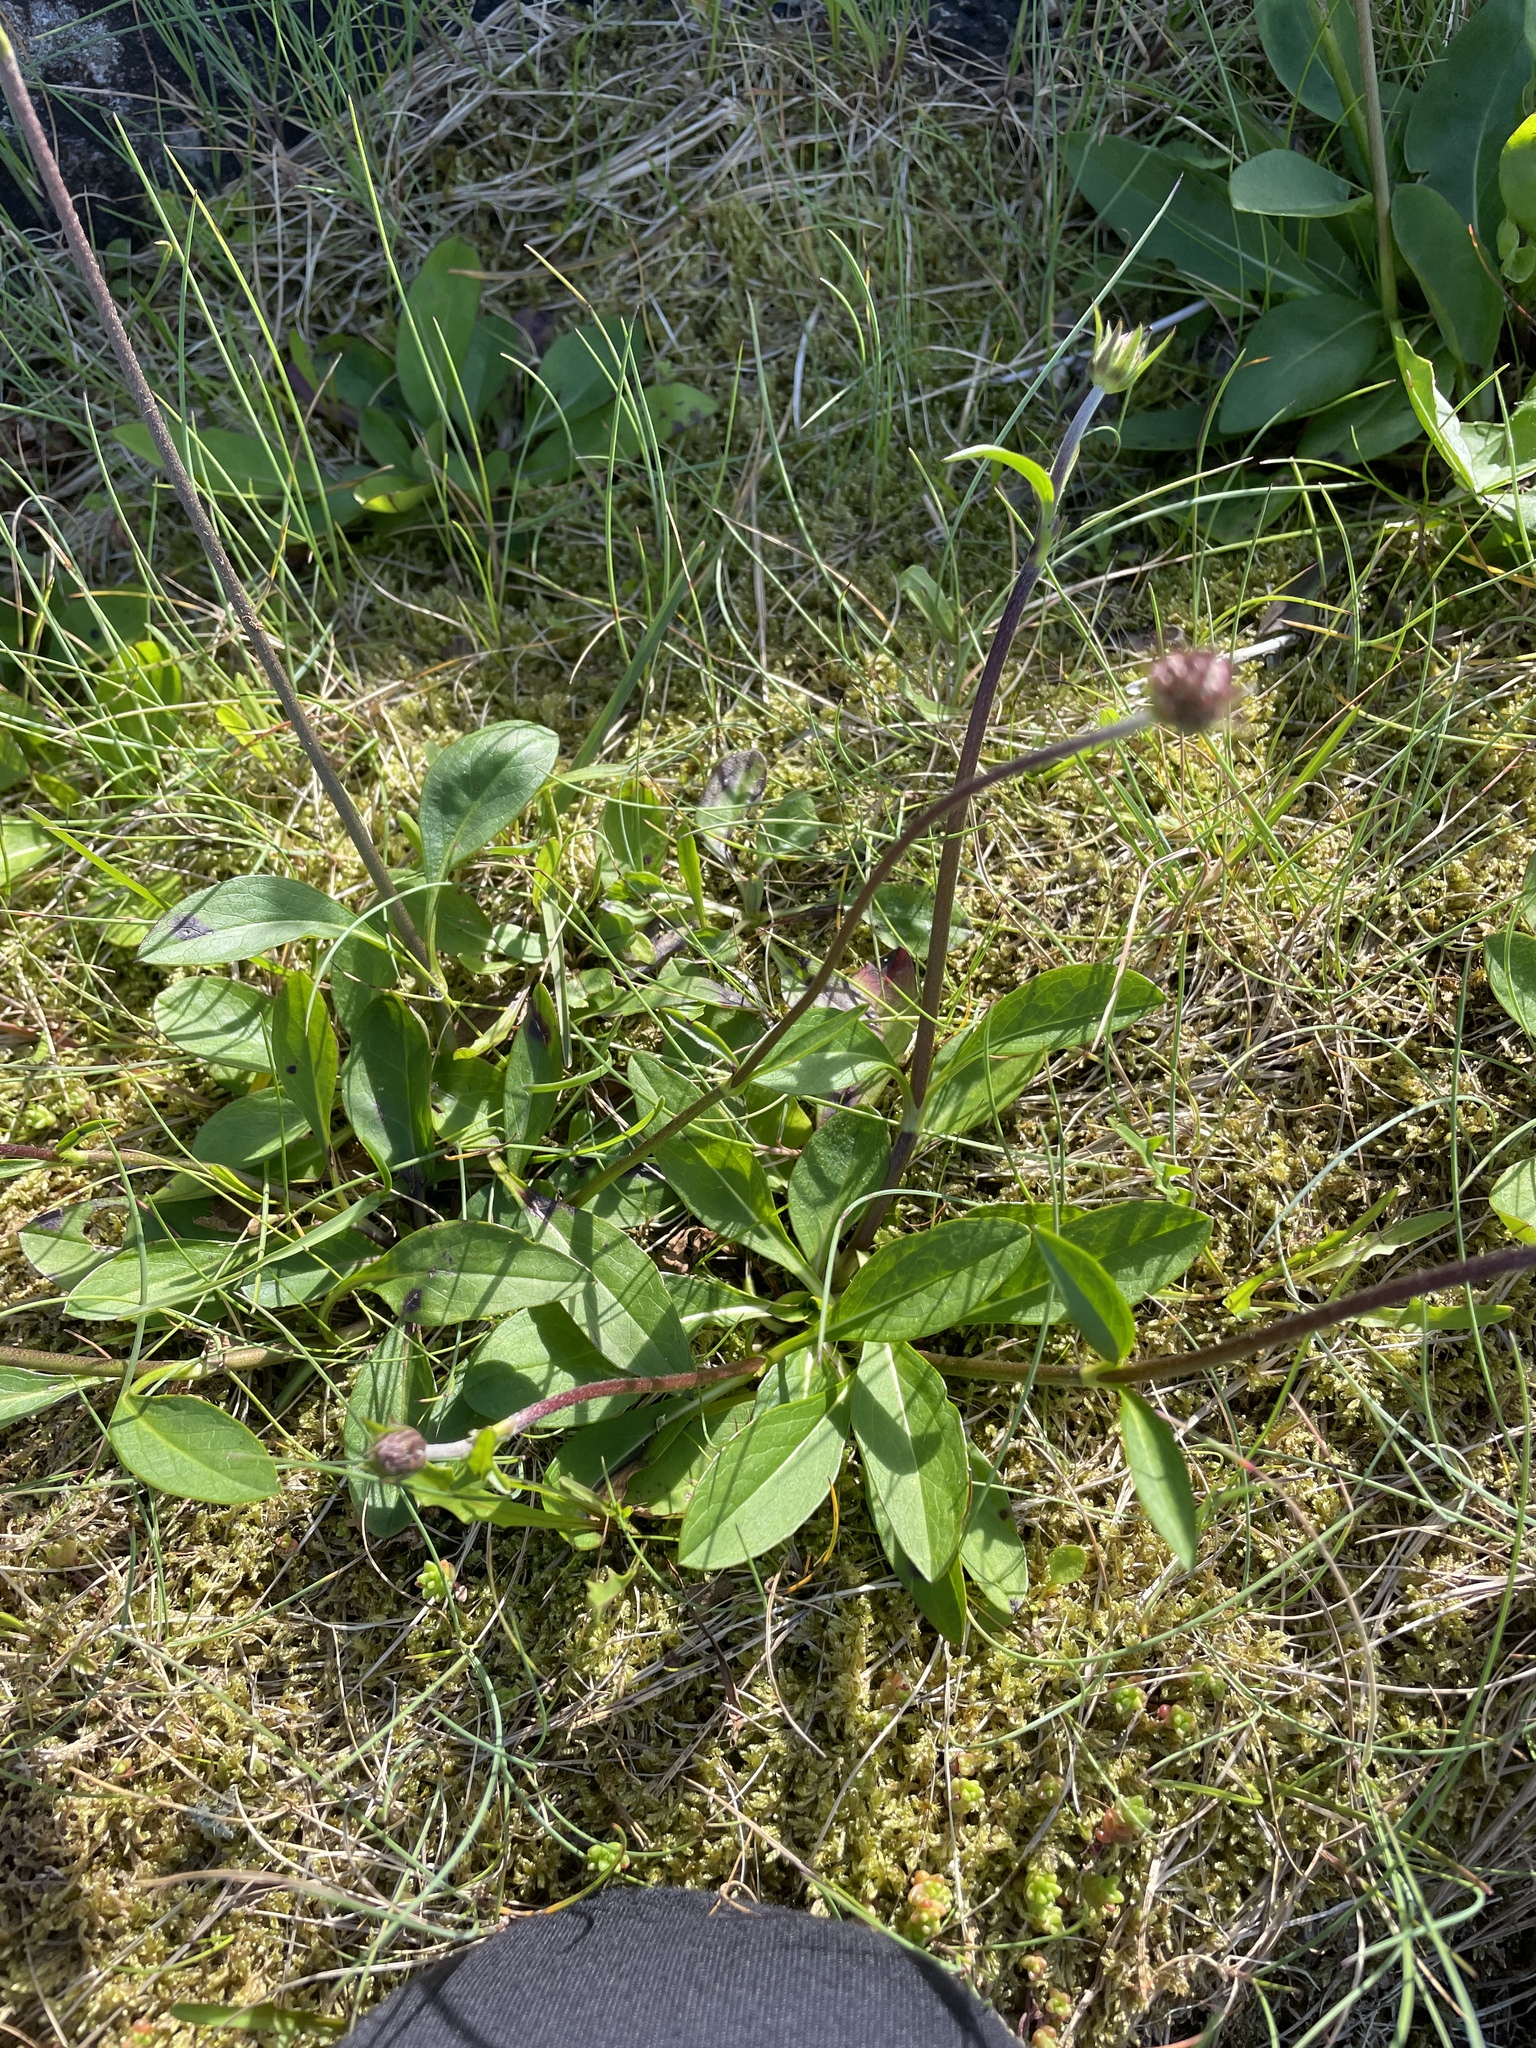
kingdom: Plantae
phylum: Tracheophyta
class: Magnoliopsida
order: Dipsacales
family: Caprifoliaceae
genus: Succisa
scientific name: Succisa pratensis
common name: Devil's-bit
